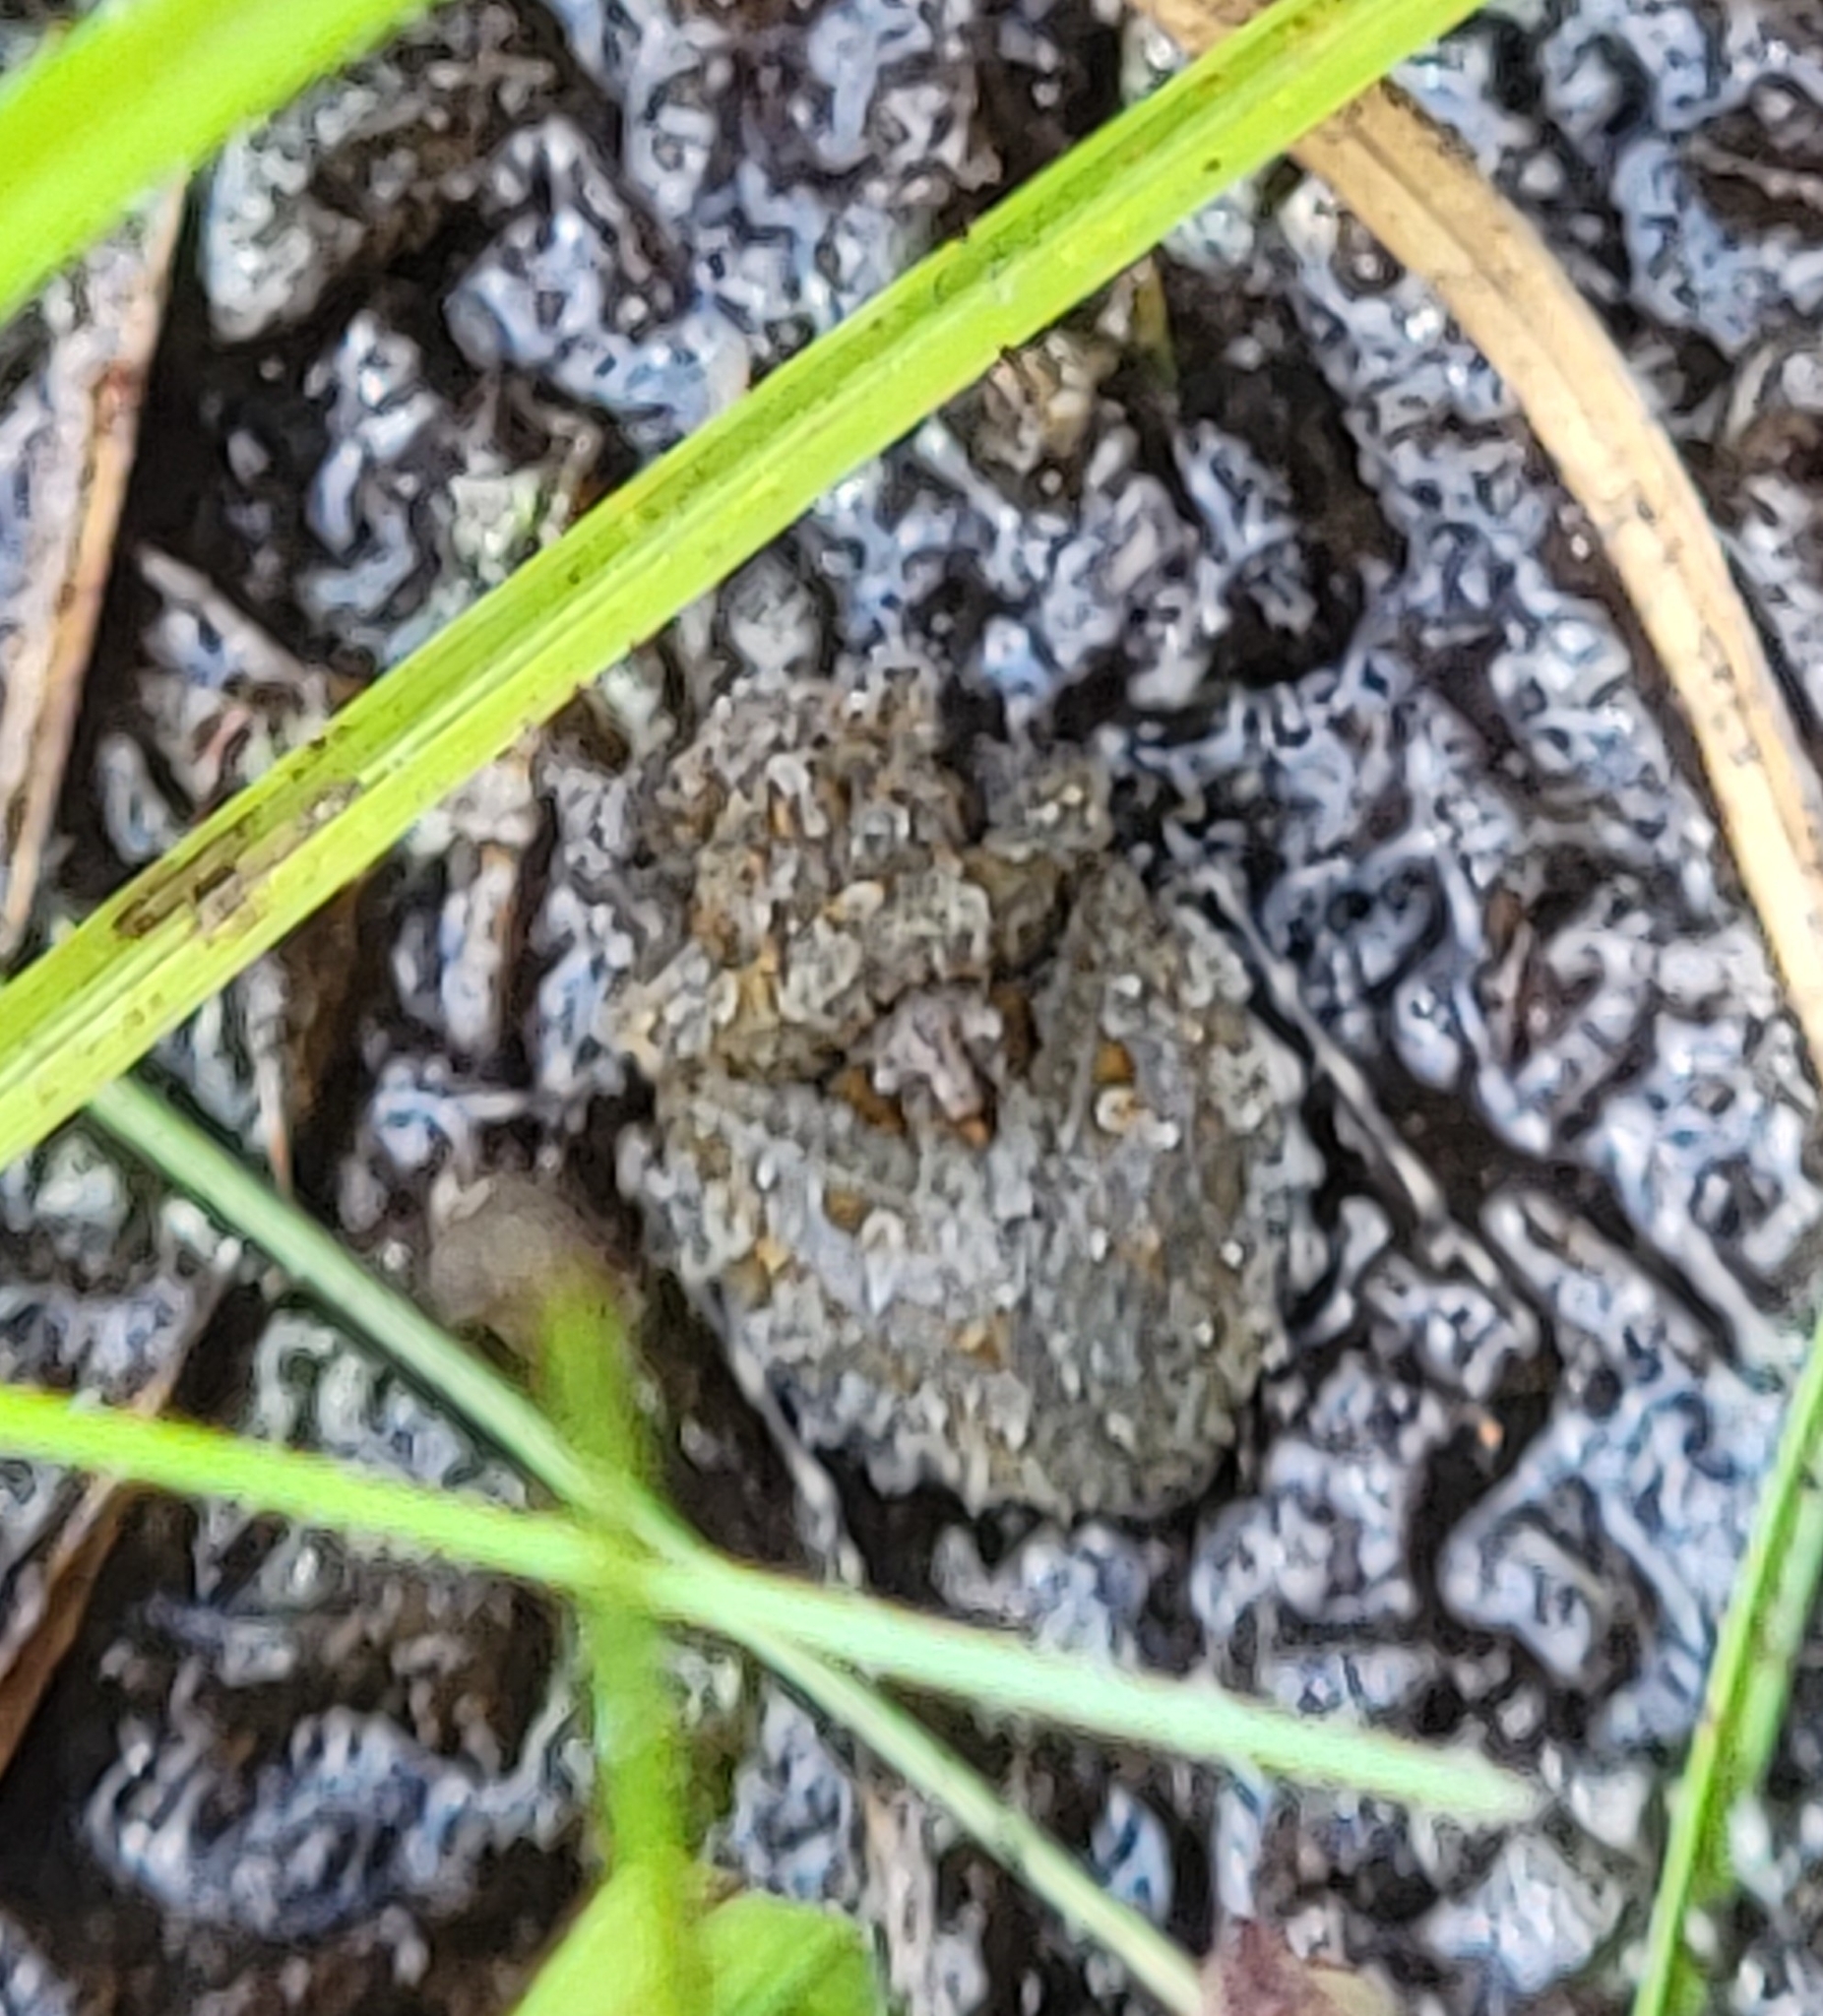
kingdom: Animalia
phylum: Arthropoda
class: Insecta
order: Hemiptera
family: Gelastocoridae
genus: Gelastocoris
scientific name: Gelastocoris oculatus
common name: Toad bug
